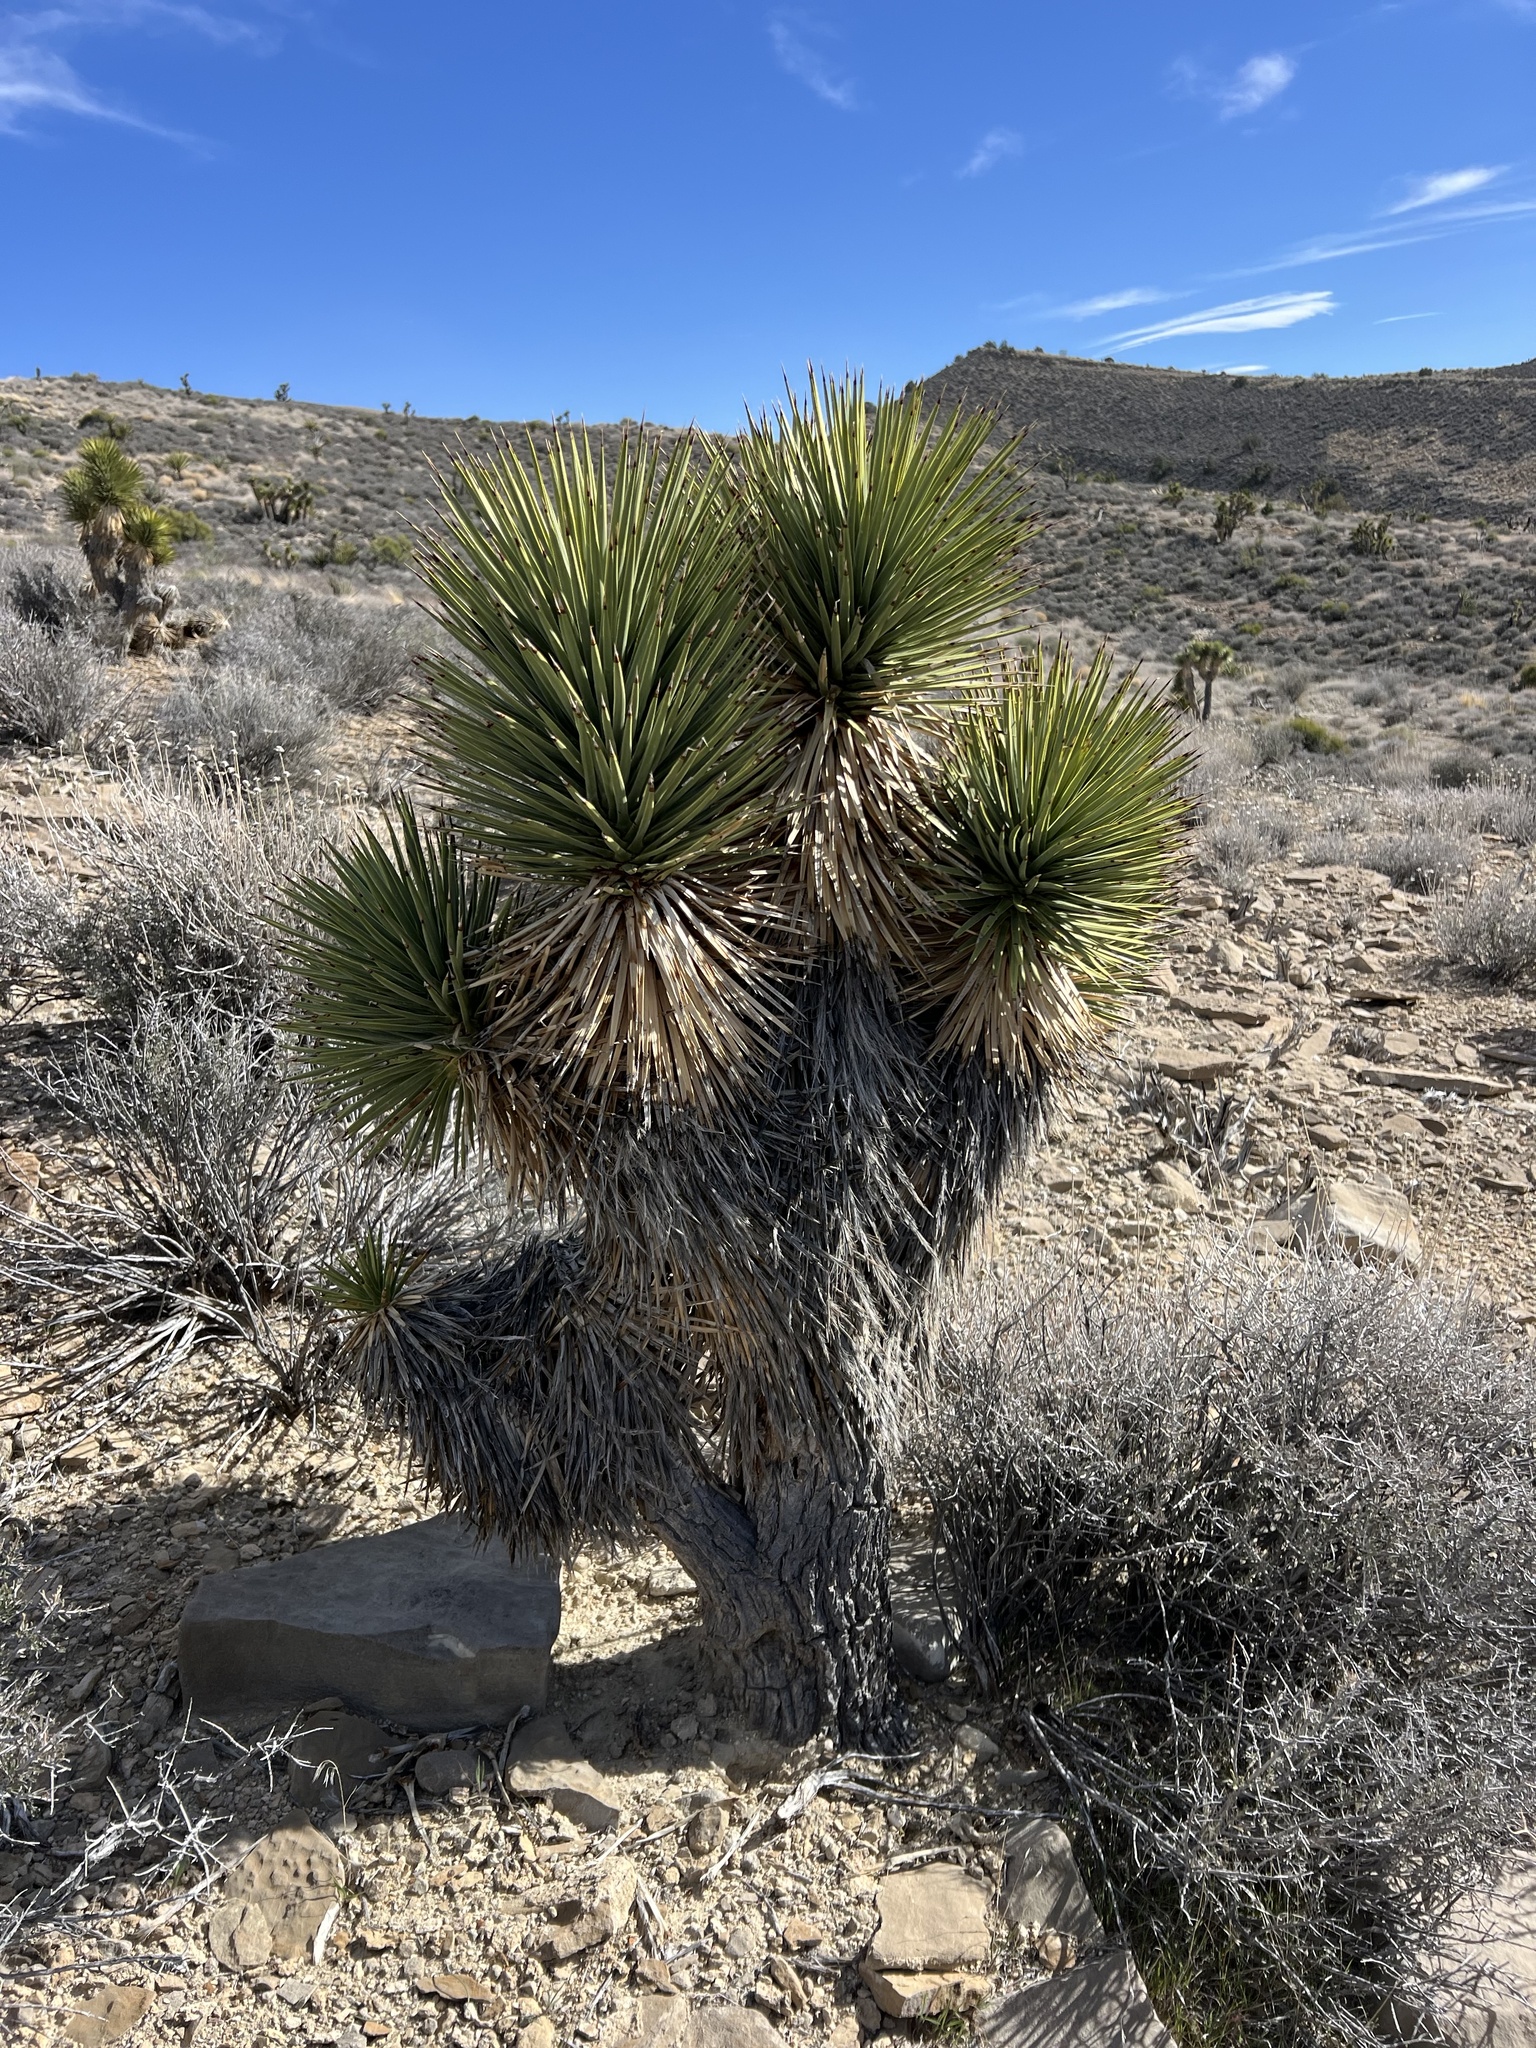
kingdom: Plantae
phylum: Tracheophyta
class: Liliopsida
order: Asparagales
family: Asparagaceae
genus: Yucca
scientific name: Yucca brevifolia
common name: Joshua tree
